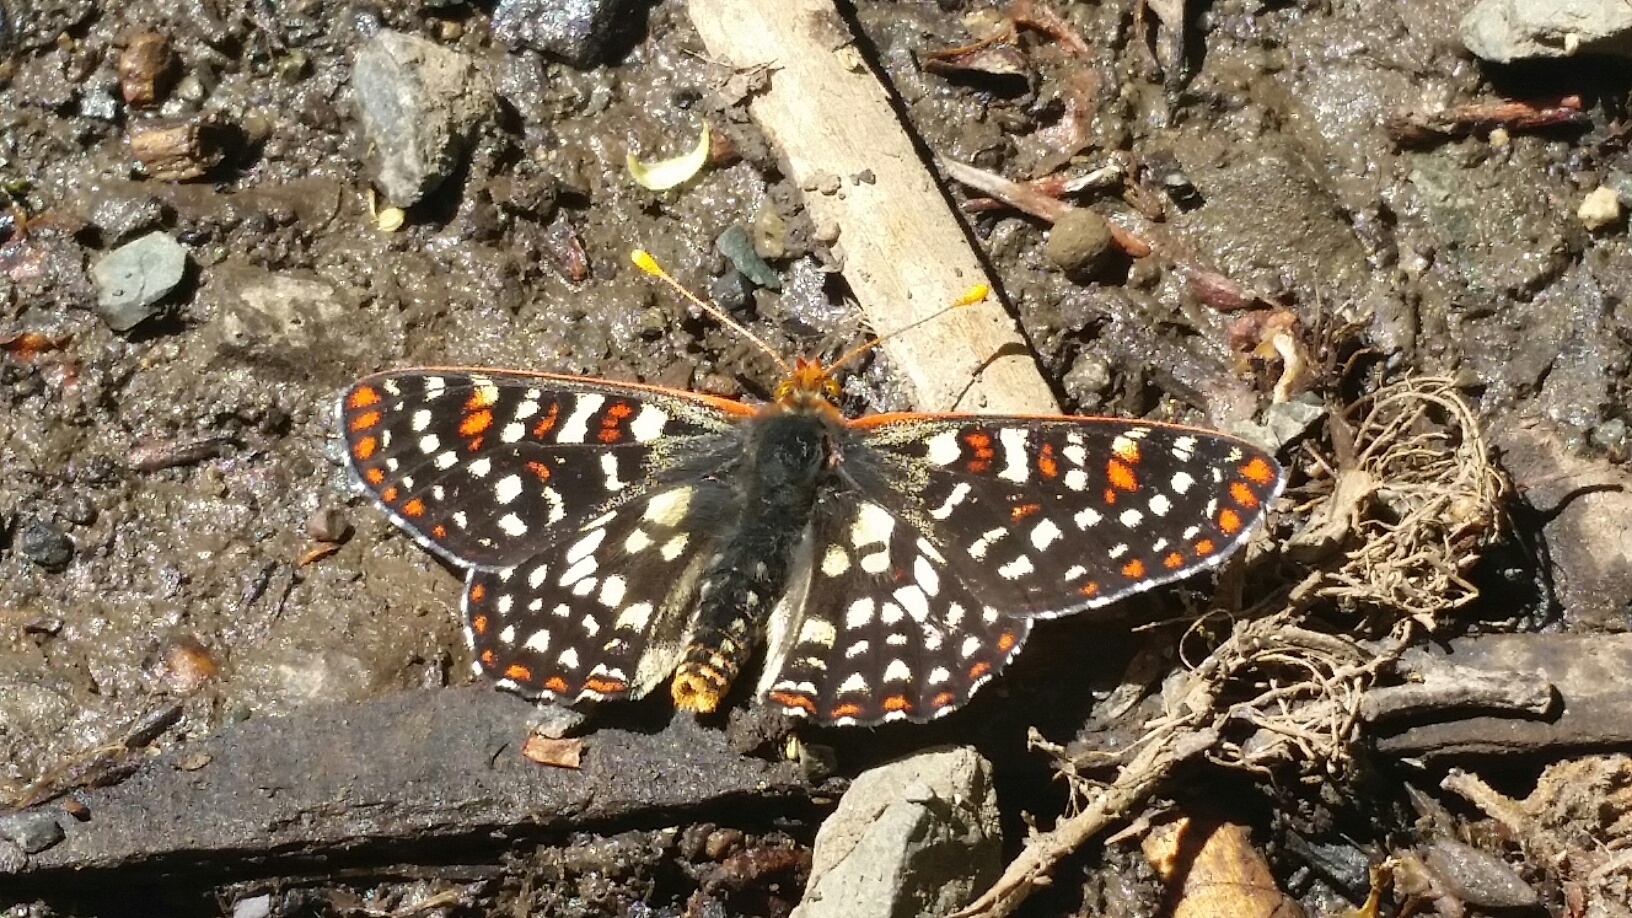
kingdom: Animalia
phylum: Arthropoda
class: Insecta
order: Lepidoptera
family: Nymphalidae
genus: Occidryas
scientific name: Occidryas chalcedona
